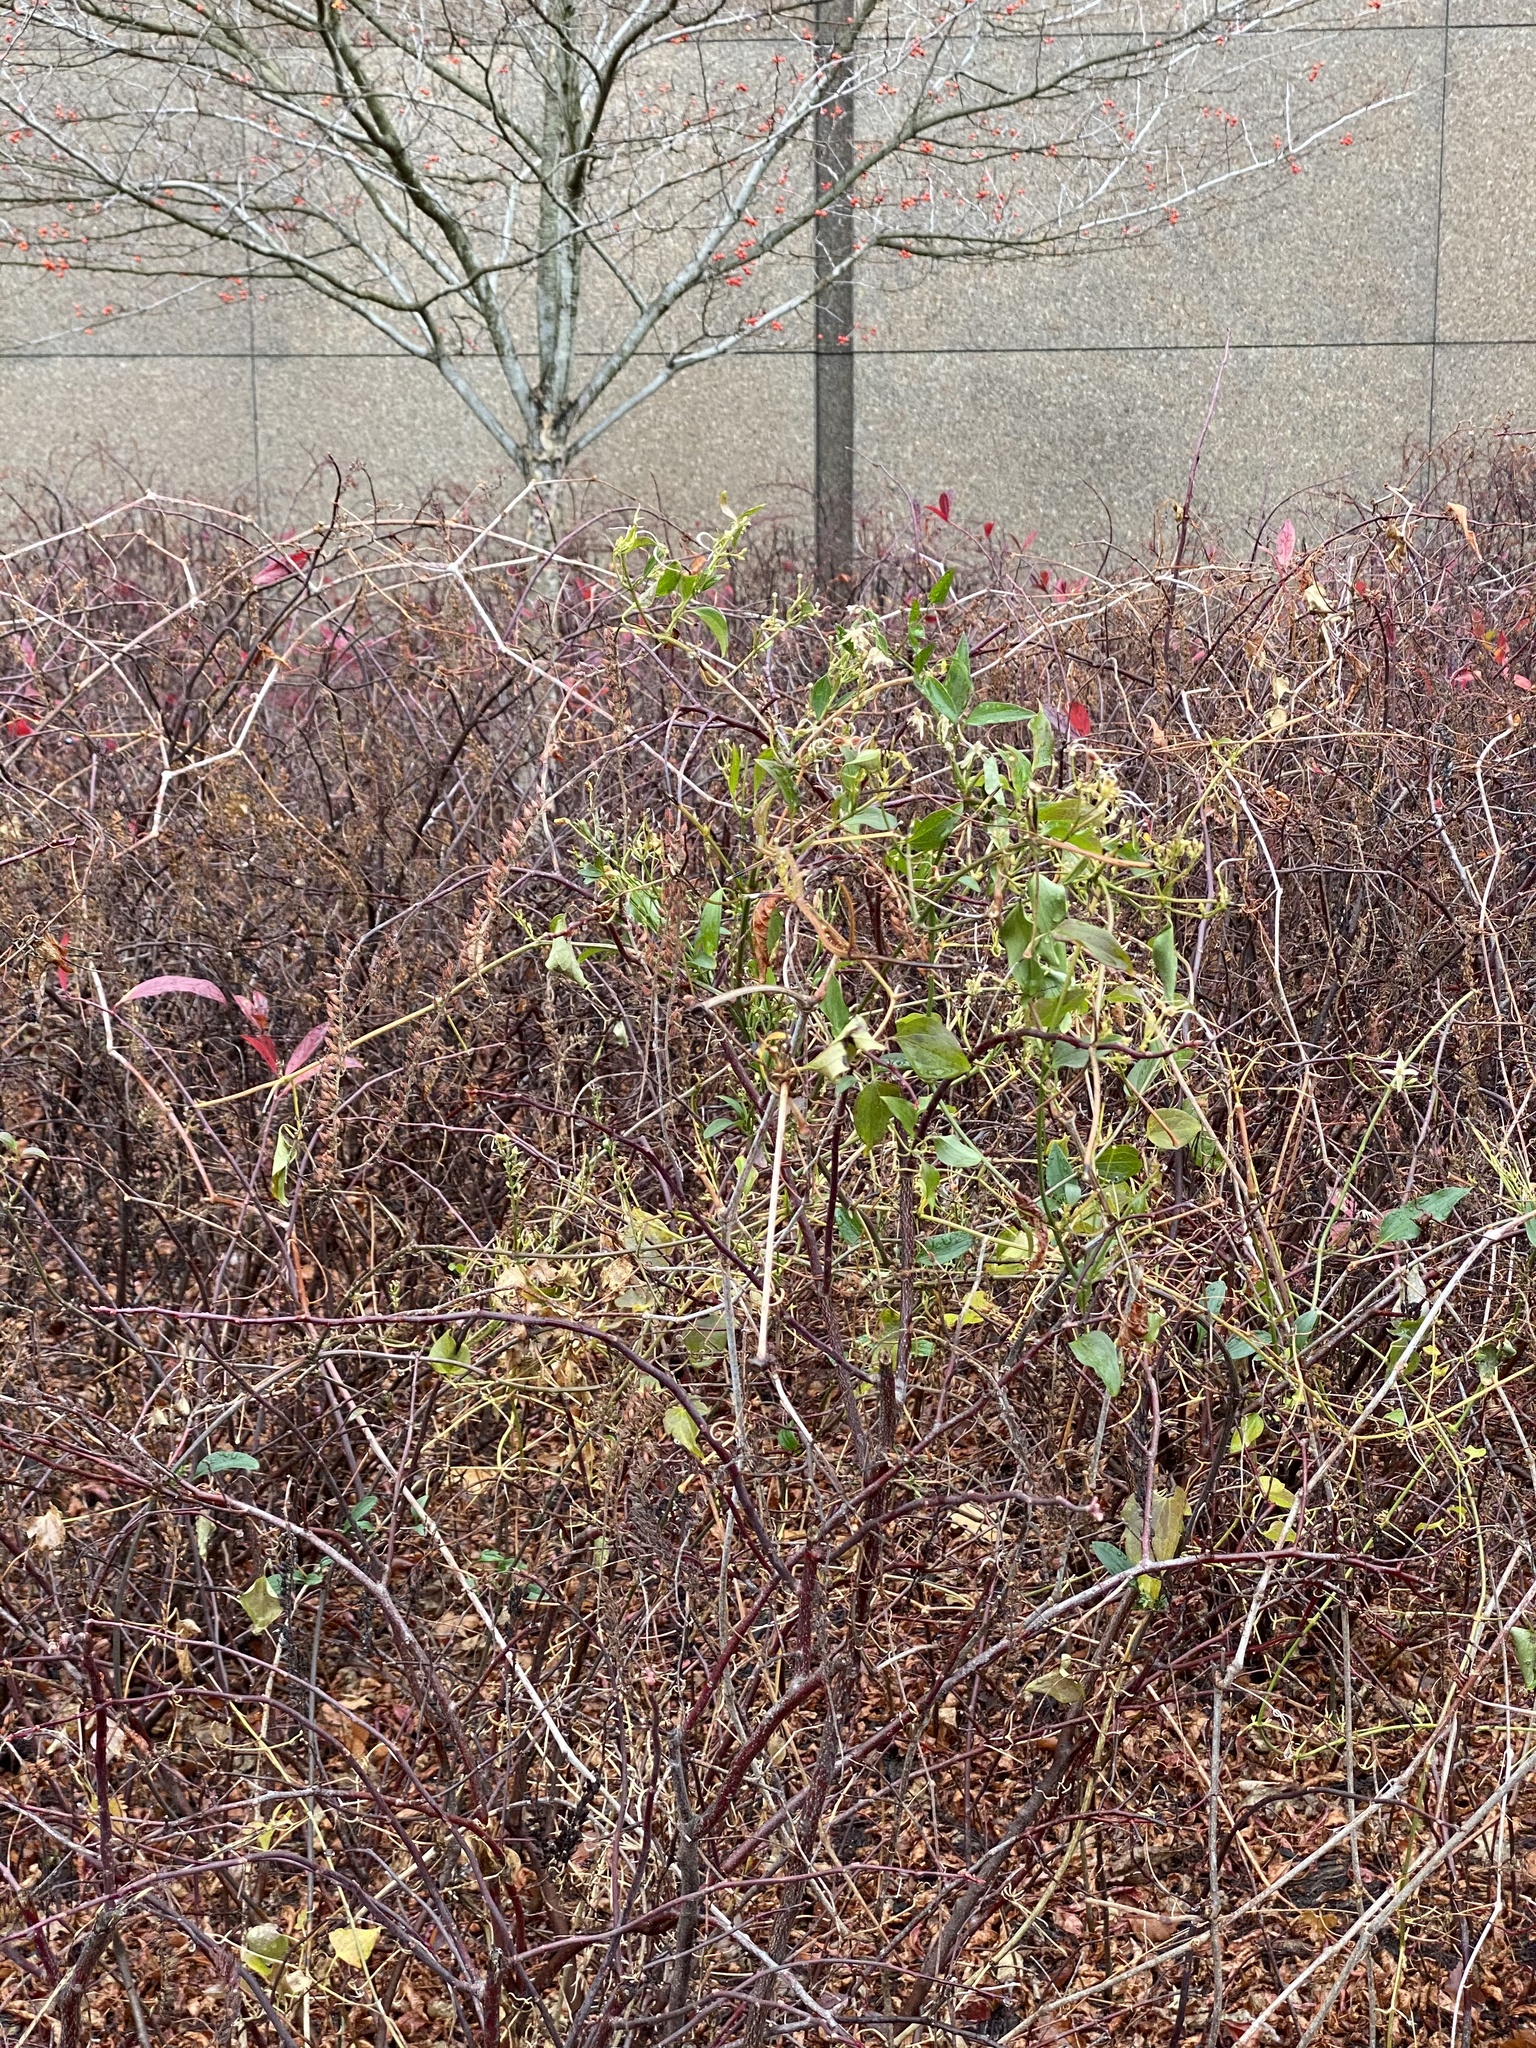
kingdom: Plantae
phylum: Tracheophyta
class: Magnoliopsida
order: Ranunculales
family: Ranunculaceae
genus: Clematis
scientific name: Clematis terniflora
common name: Sweet autumn clematis
